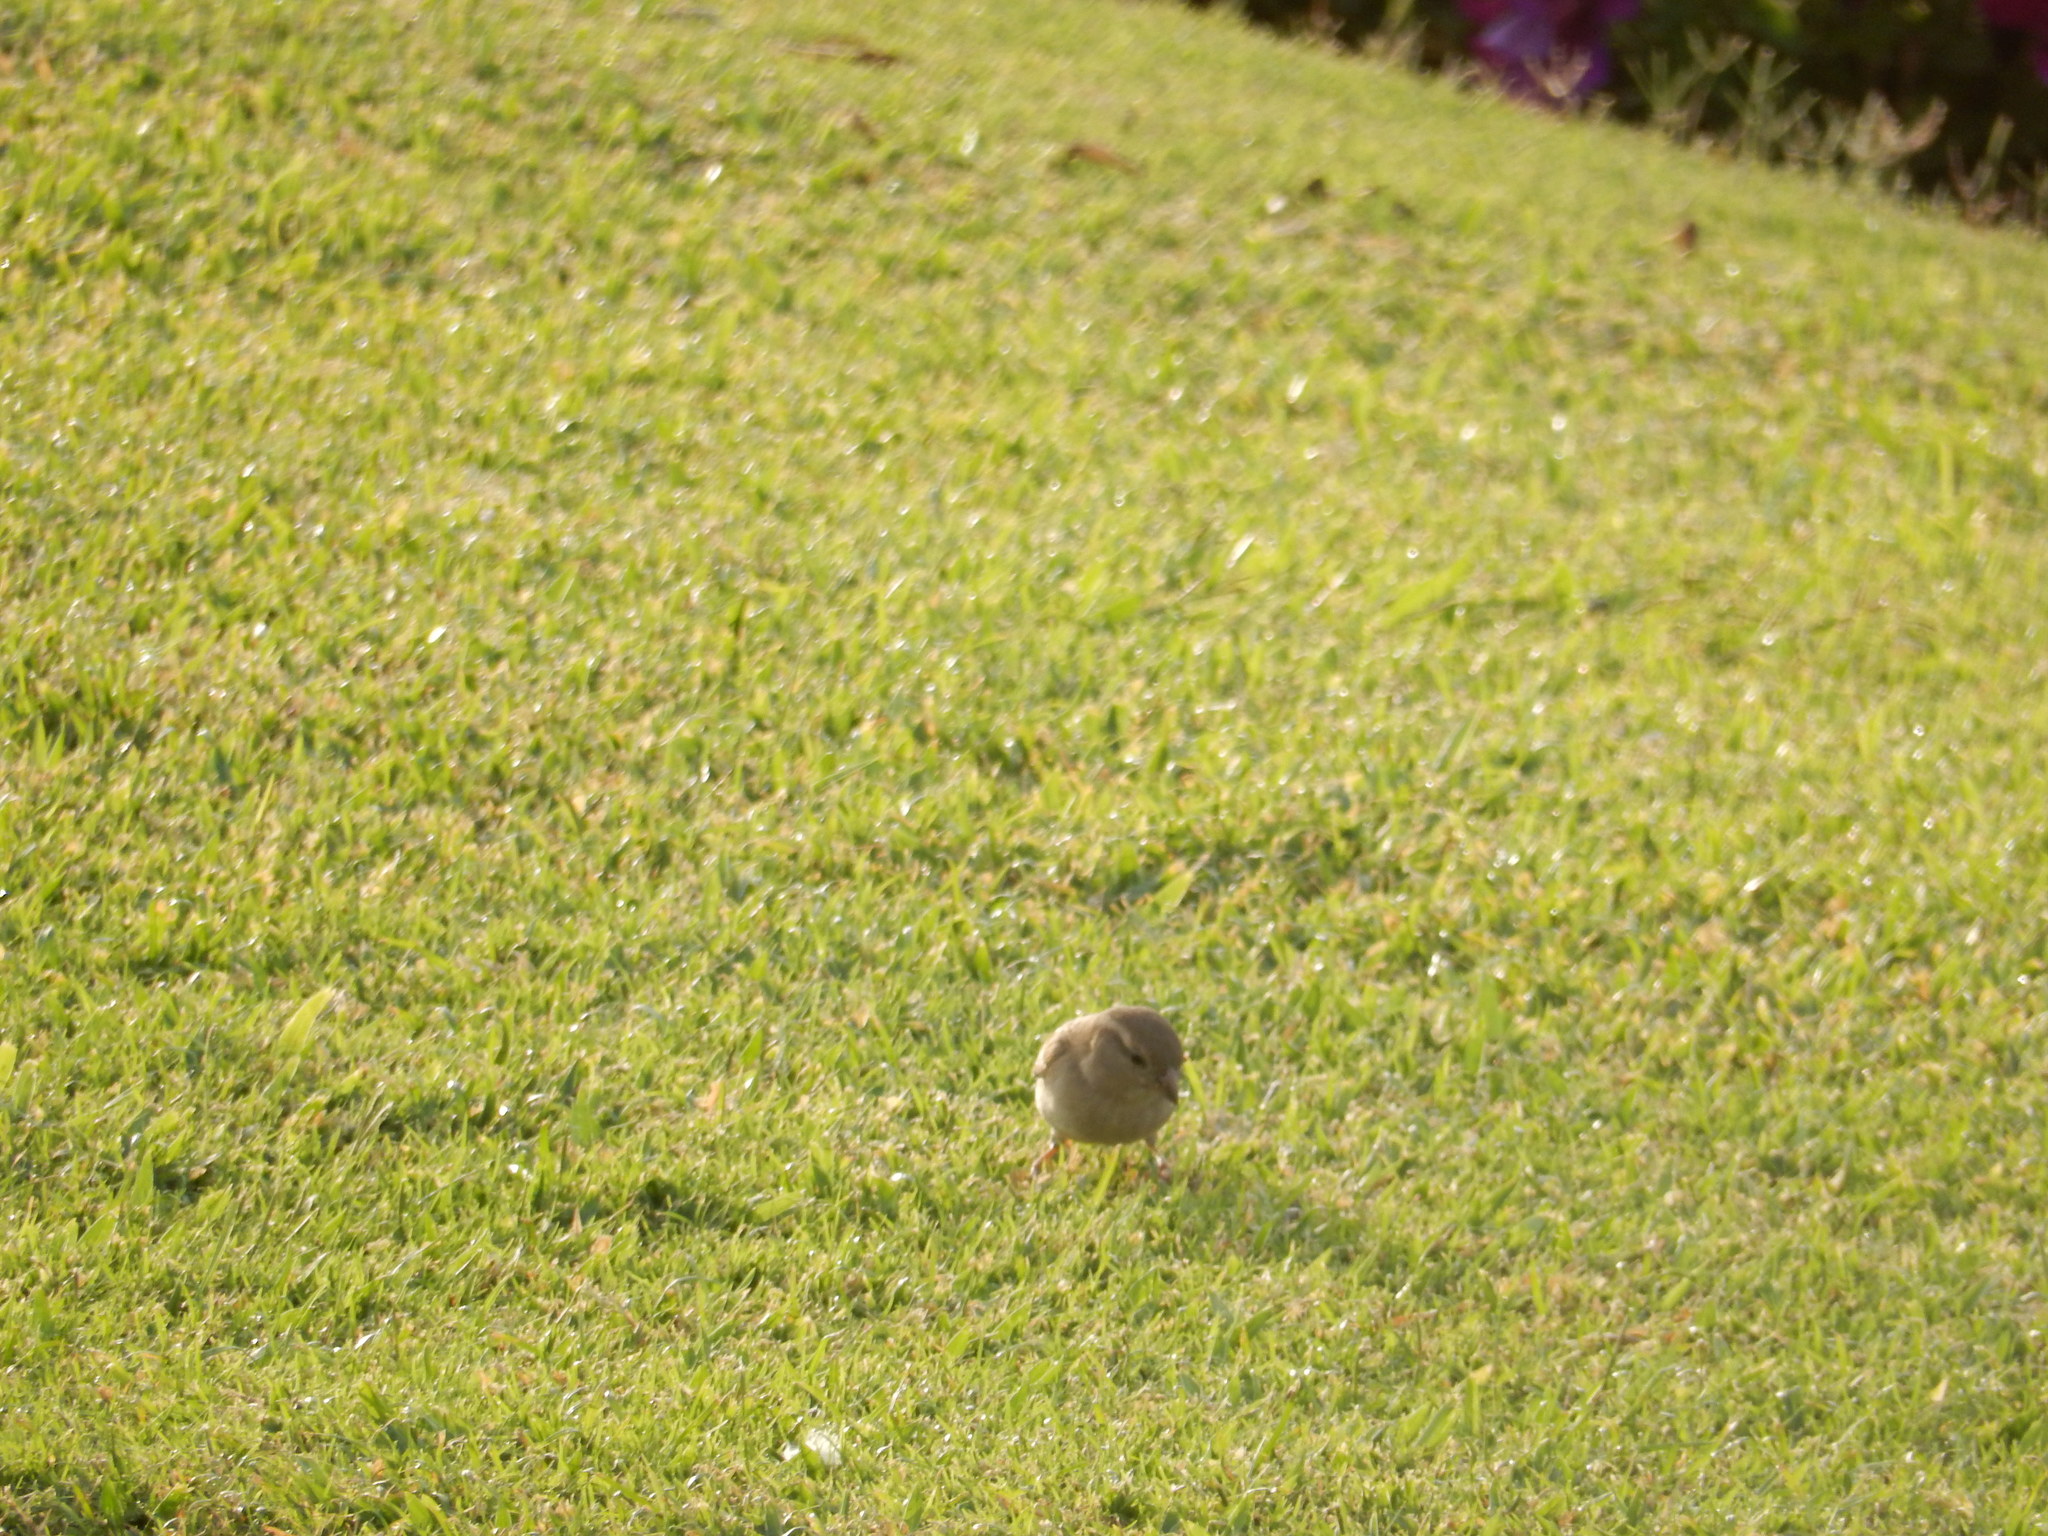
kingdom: Animalia
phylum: Chordata
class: Aves
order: Passeriformes
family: Passeridae
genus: Passer
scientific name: Passer domesticus
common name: House sparrow
